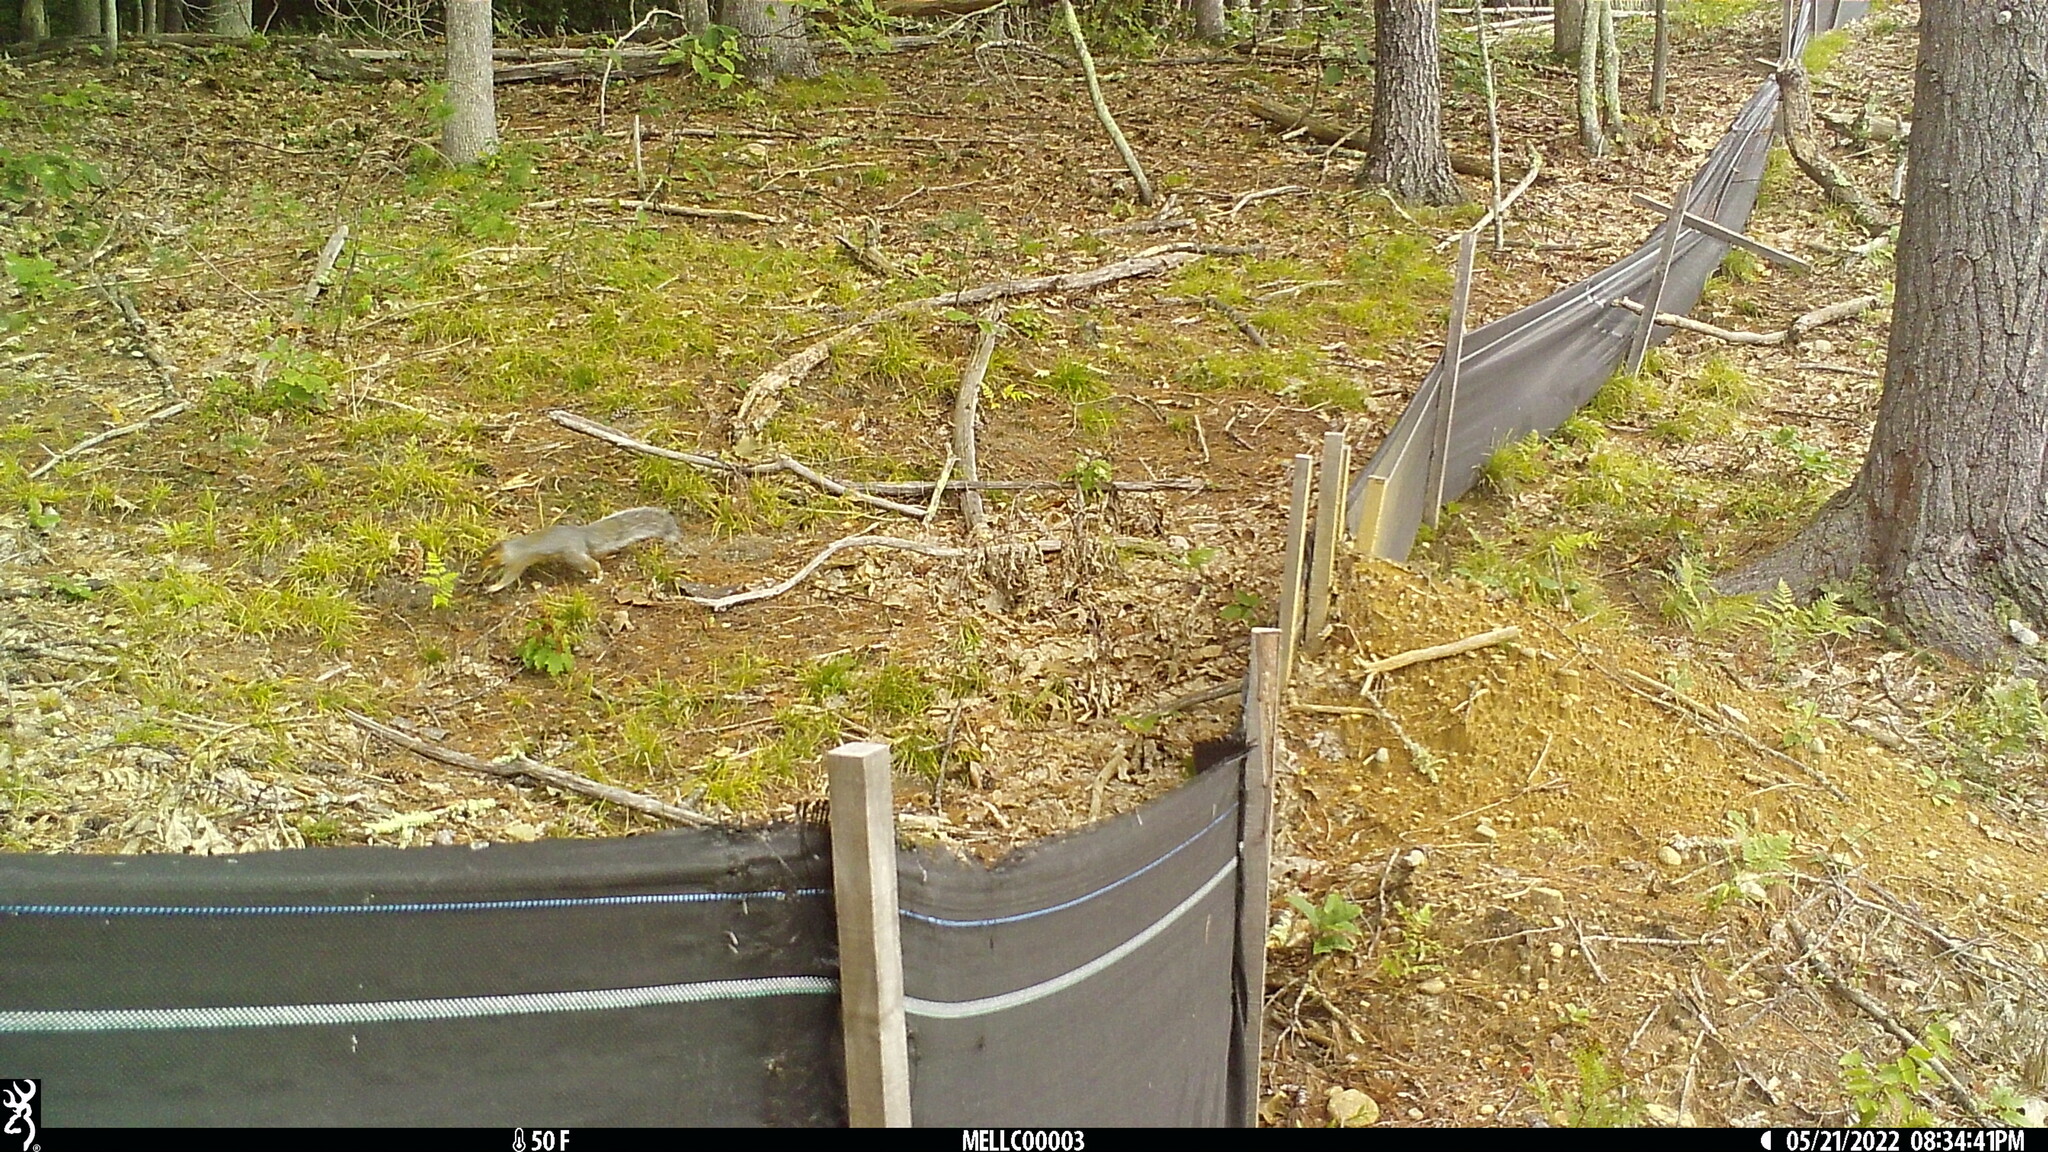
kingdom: Animalia
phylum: Chordata
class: Mammalia
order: Rodentia
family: Sciuridae
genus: Sciurus
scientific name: Sciurus carolinensis
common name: Eastern gray squirrel
